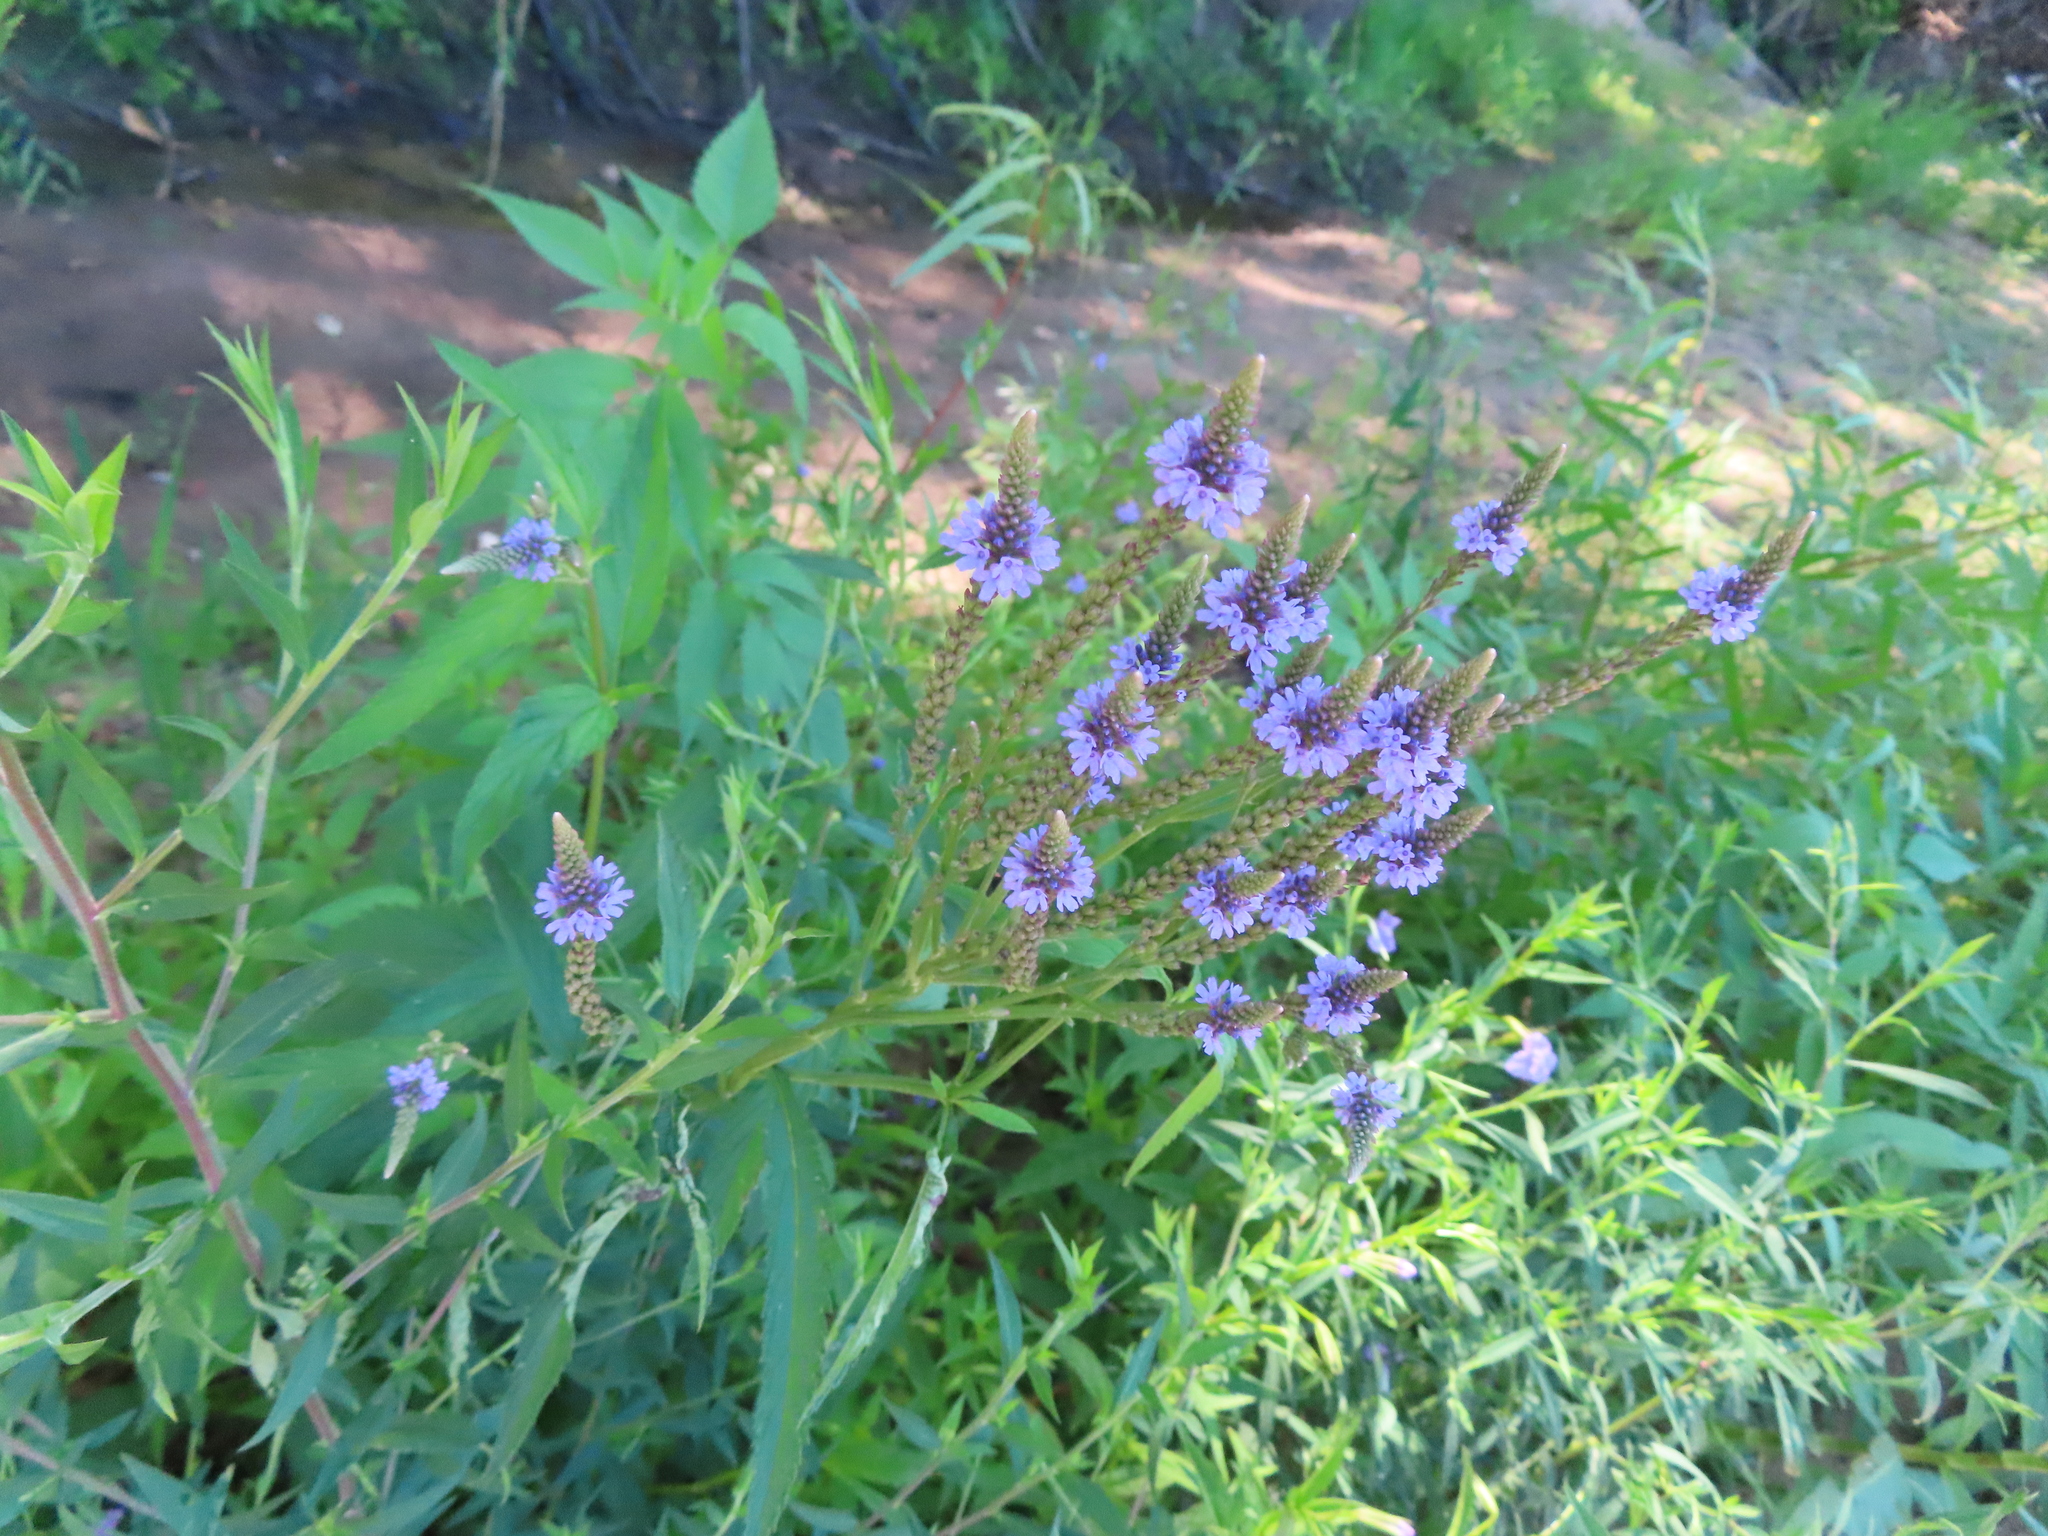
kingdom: Plantae
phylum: Tracheophyta
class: Magnoliopsida
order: Lamiales
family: Verbenaceae
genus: Verbena
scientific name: Verbena hastata
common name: American blue vervain
